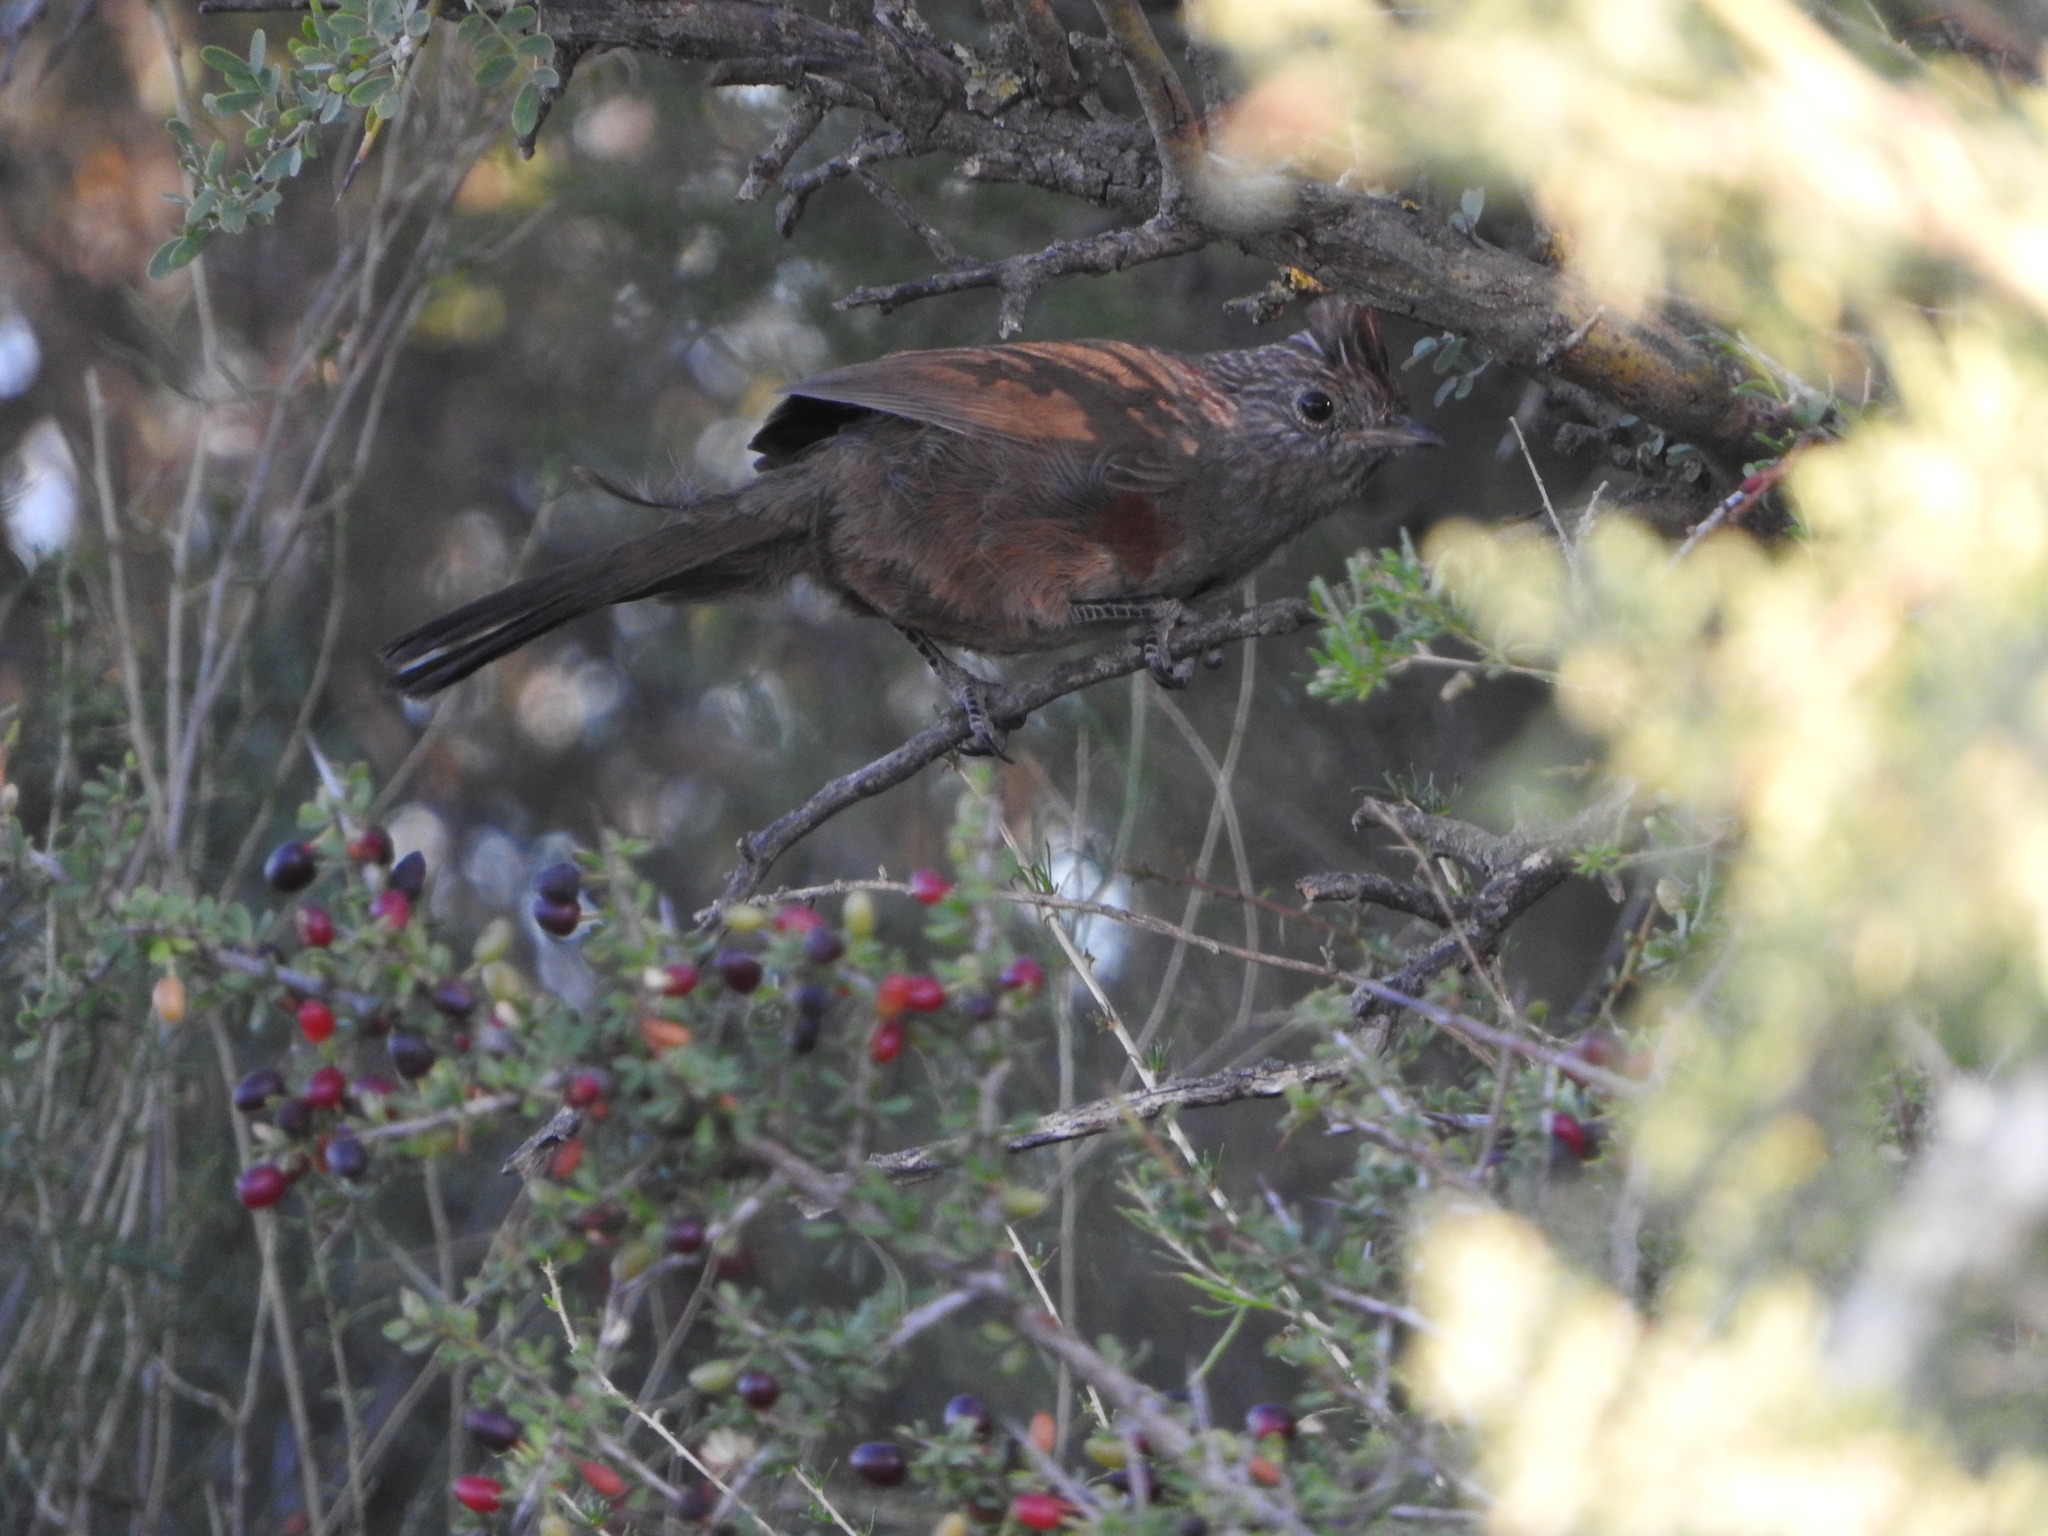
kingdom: Animalia
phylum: Chordata
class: Aves
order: Passeriformes
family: Rhinocryptidae
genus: Rhinocrypta
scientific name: Rhinocrypta lanceolata
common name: Crested gallito
